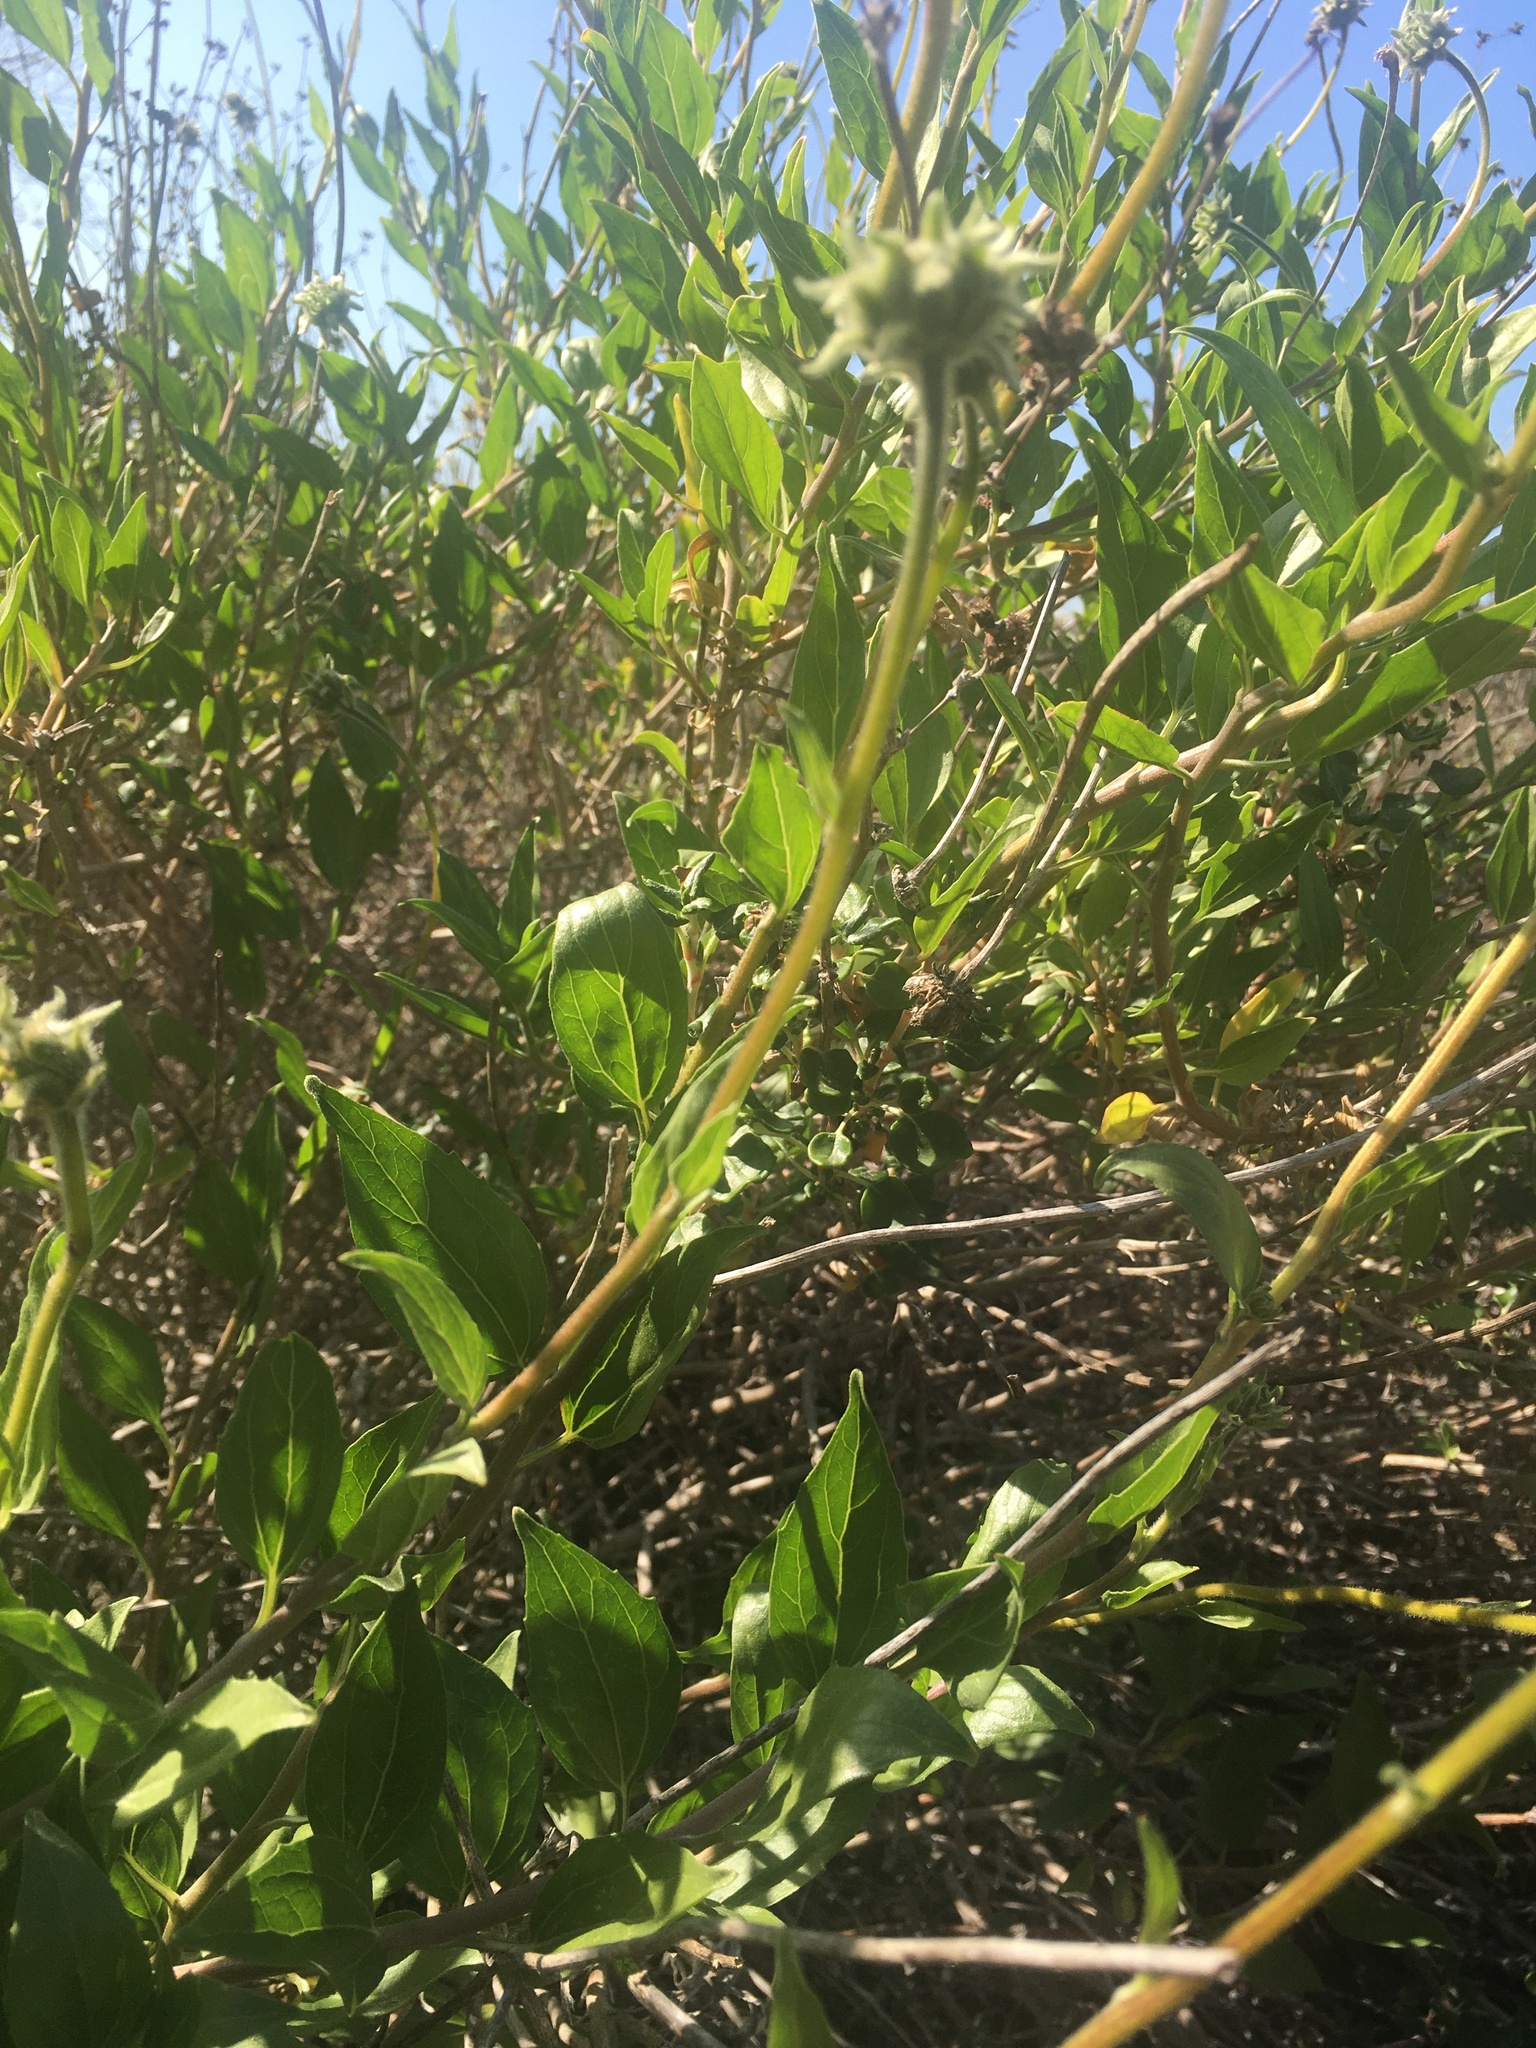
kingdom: Plantae
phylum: Tracheophyta
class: Magnoliopsida
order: Asterales
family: Asteraceae
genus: Encelia
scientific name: Encelia californica
